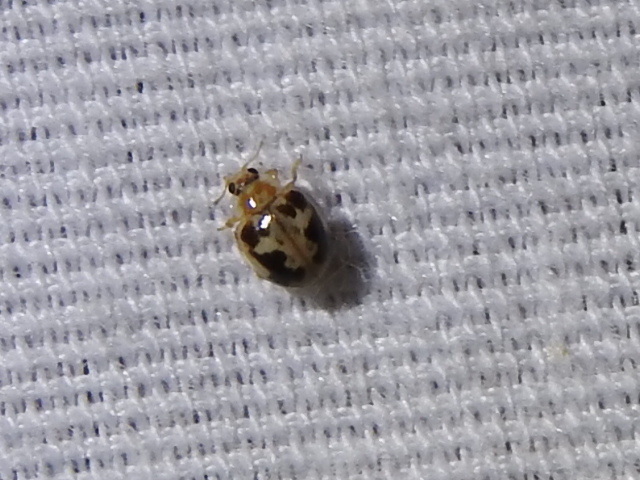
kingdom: Animalia
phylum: Arthropoda
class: Insecta
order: Coleoptera
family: Coccinellidae
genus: Psyllobora
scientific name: Psyllobora renifer
